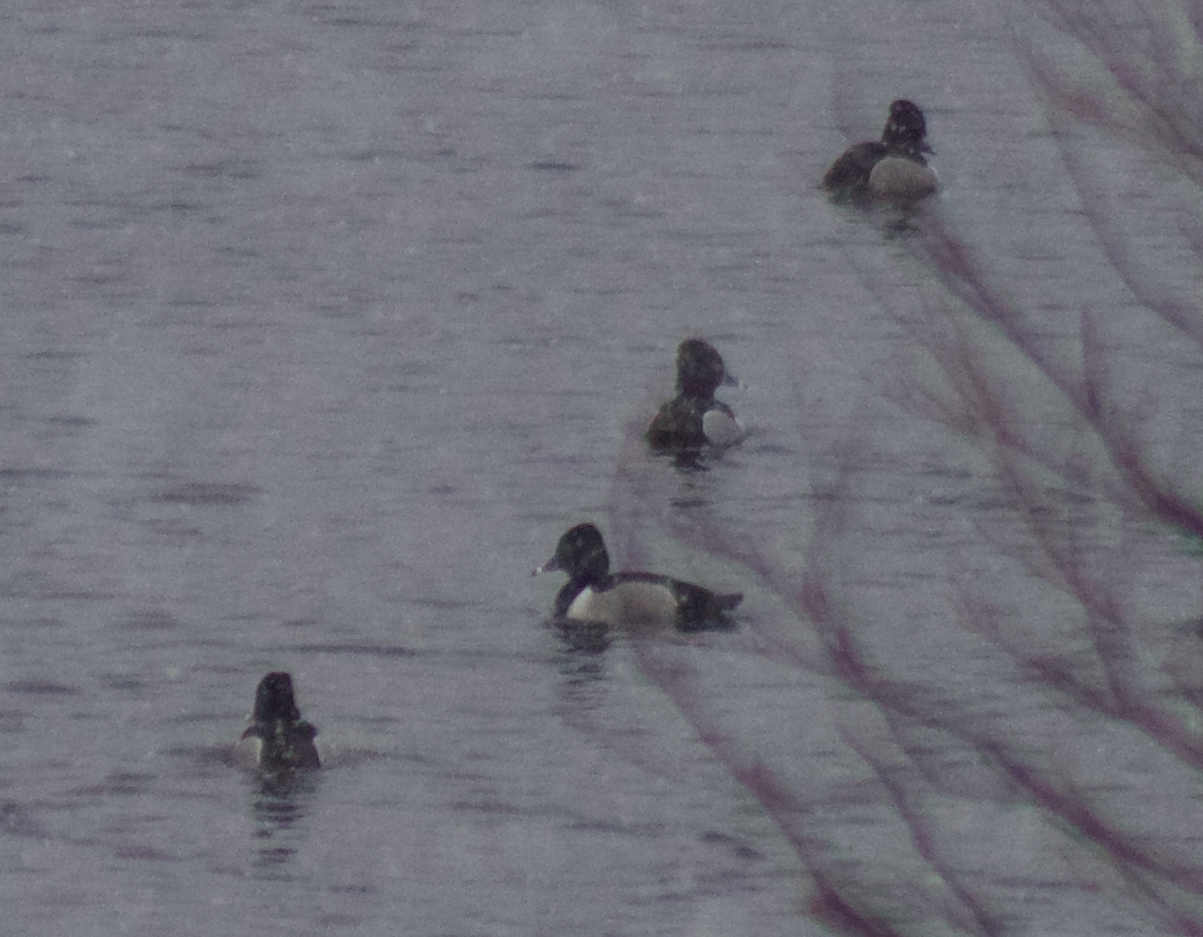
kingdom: Animalia
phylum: Chordata
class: Aves
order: Anseriformes
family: Anatidae
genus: Aythya
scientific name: Aythya collaris
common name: Ring-necked duck
